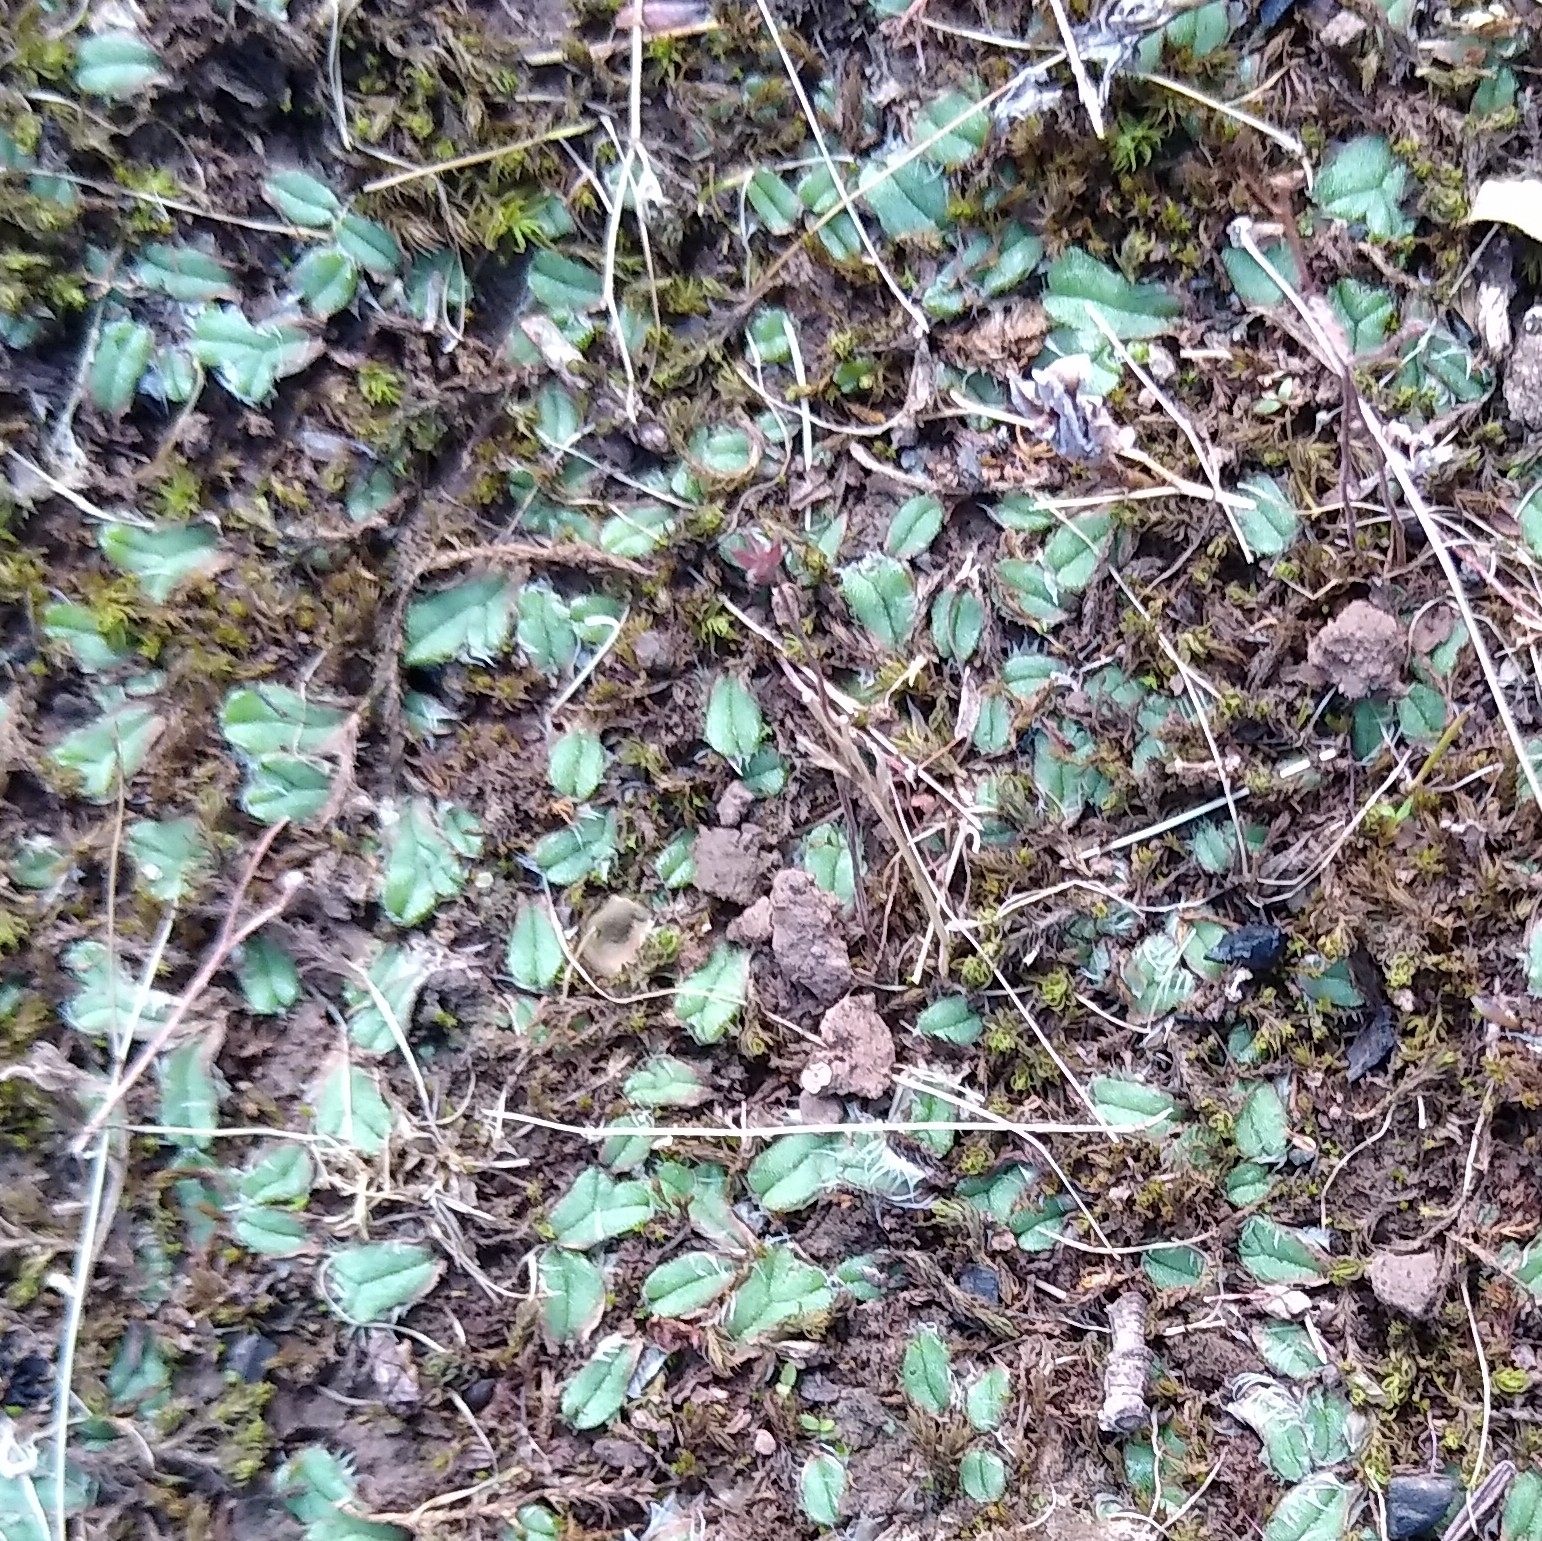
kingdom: Plantae
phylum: Marchantiophyta
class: Marchantiopsida
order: Marchantiales
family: Ricciaceae
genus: Oxymitra
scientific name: Oxymitra incrassata
